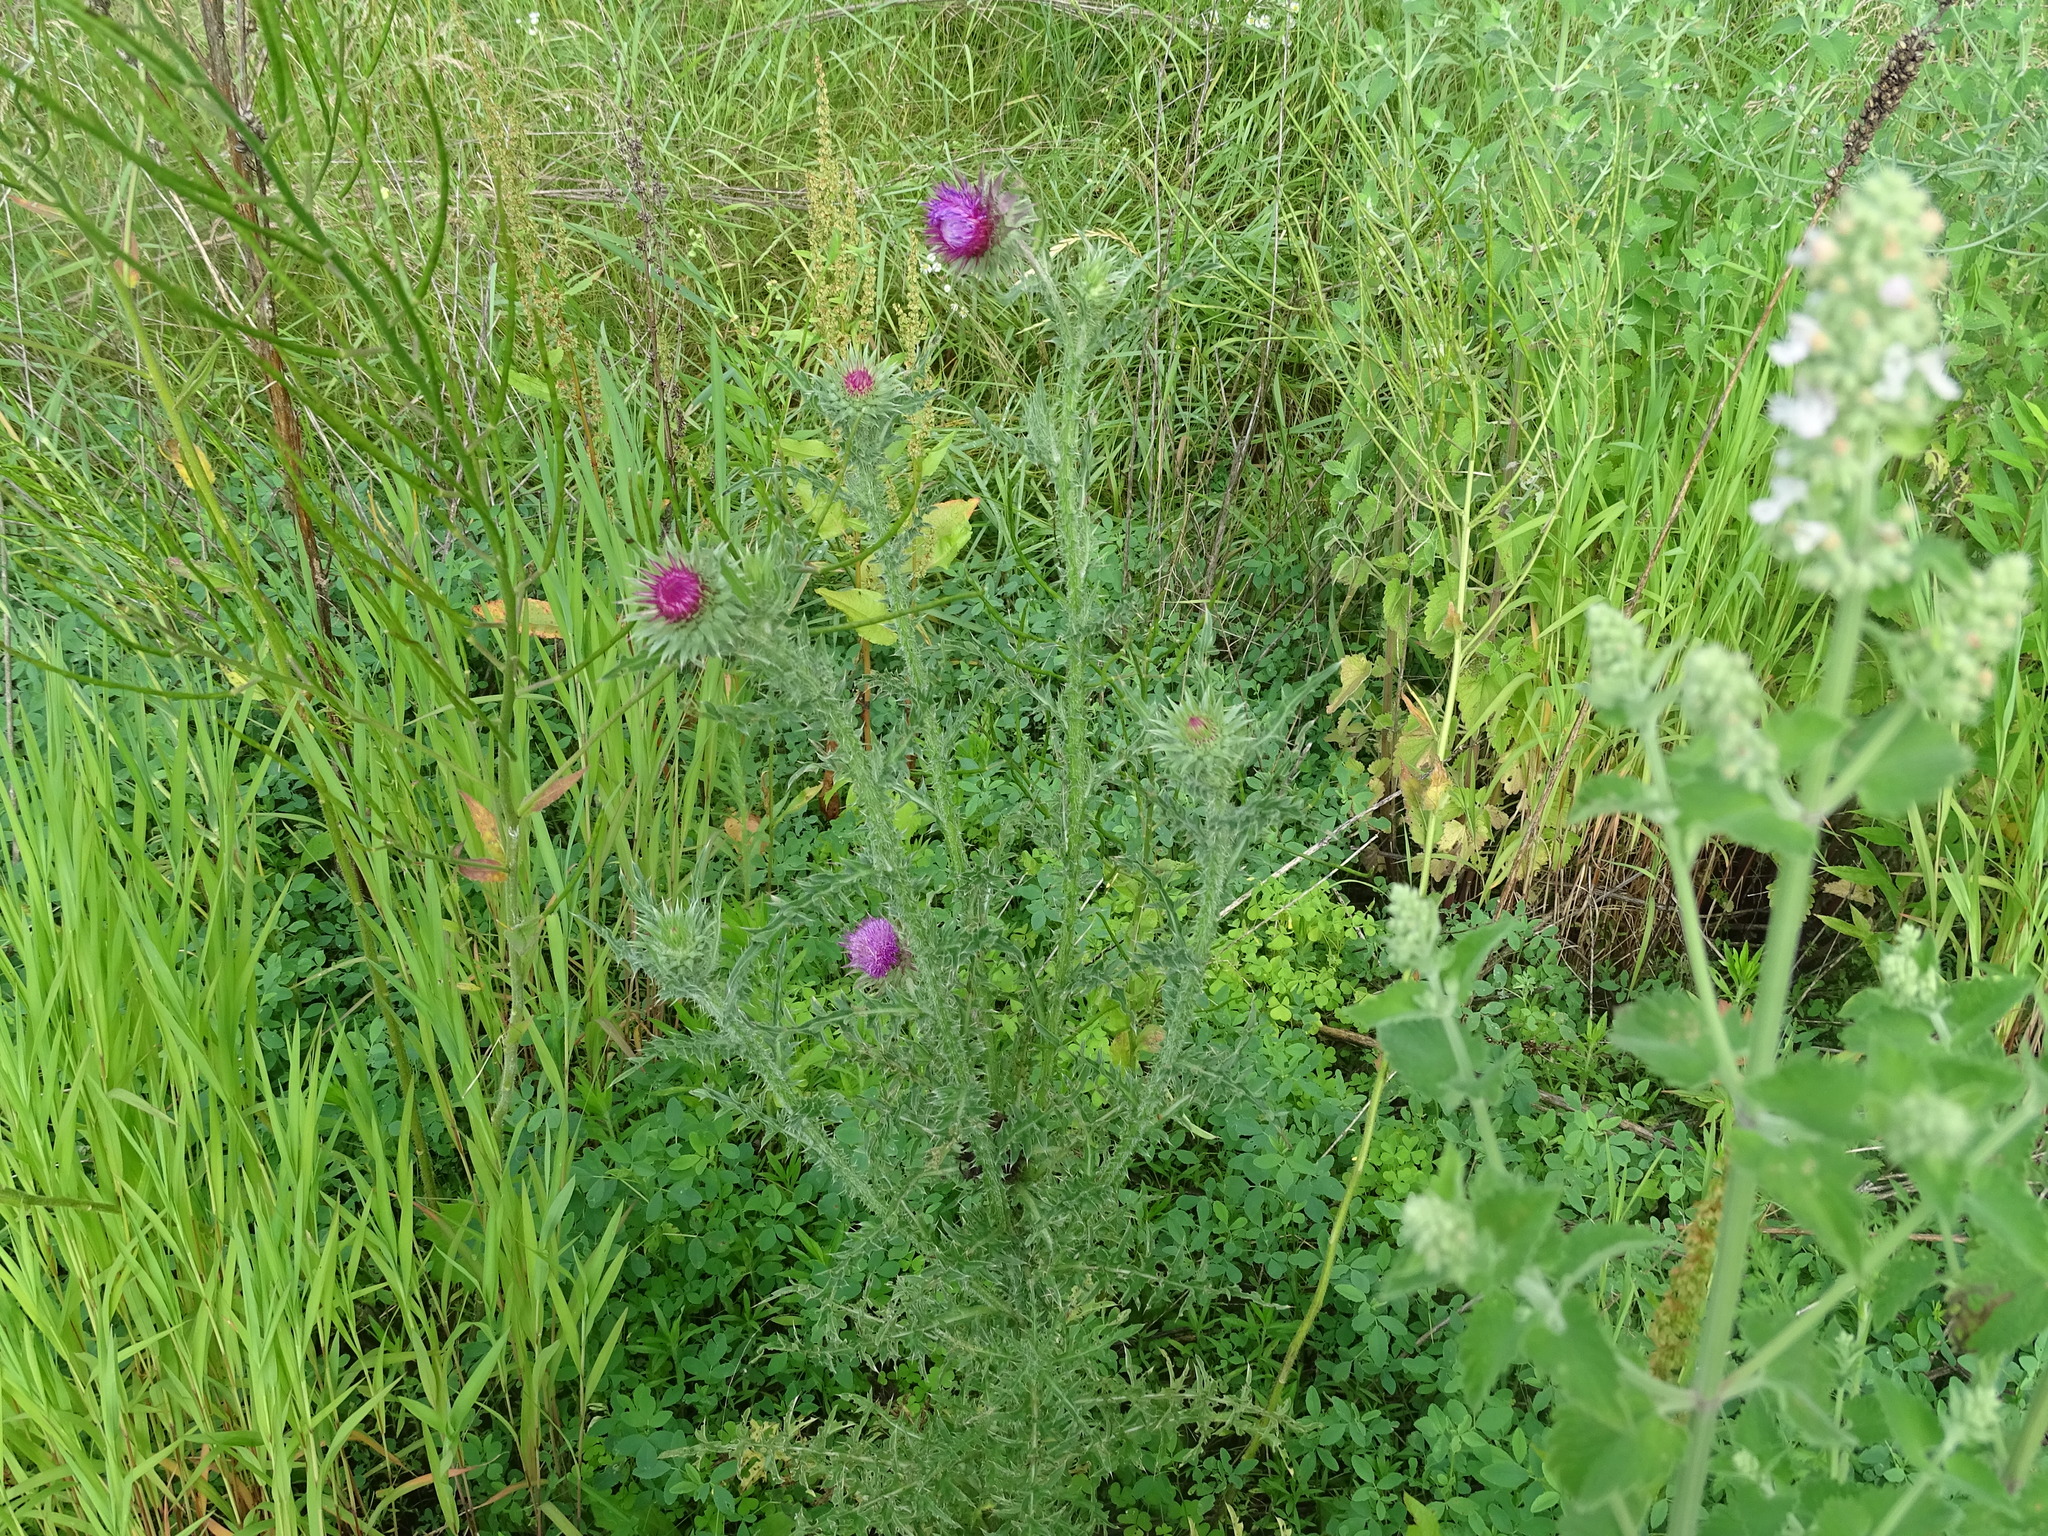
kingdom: Plantae
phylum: Tracheophyta
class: Magnoliopsida
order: Asterales
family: Asteraceae
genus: Carduus
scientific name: Carduus nutans
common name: Musk thistle
